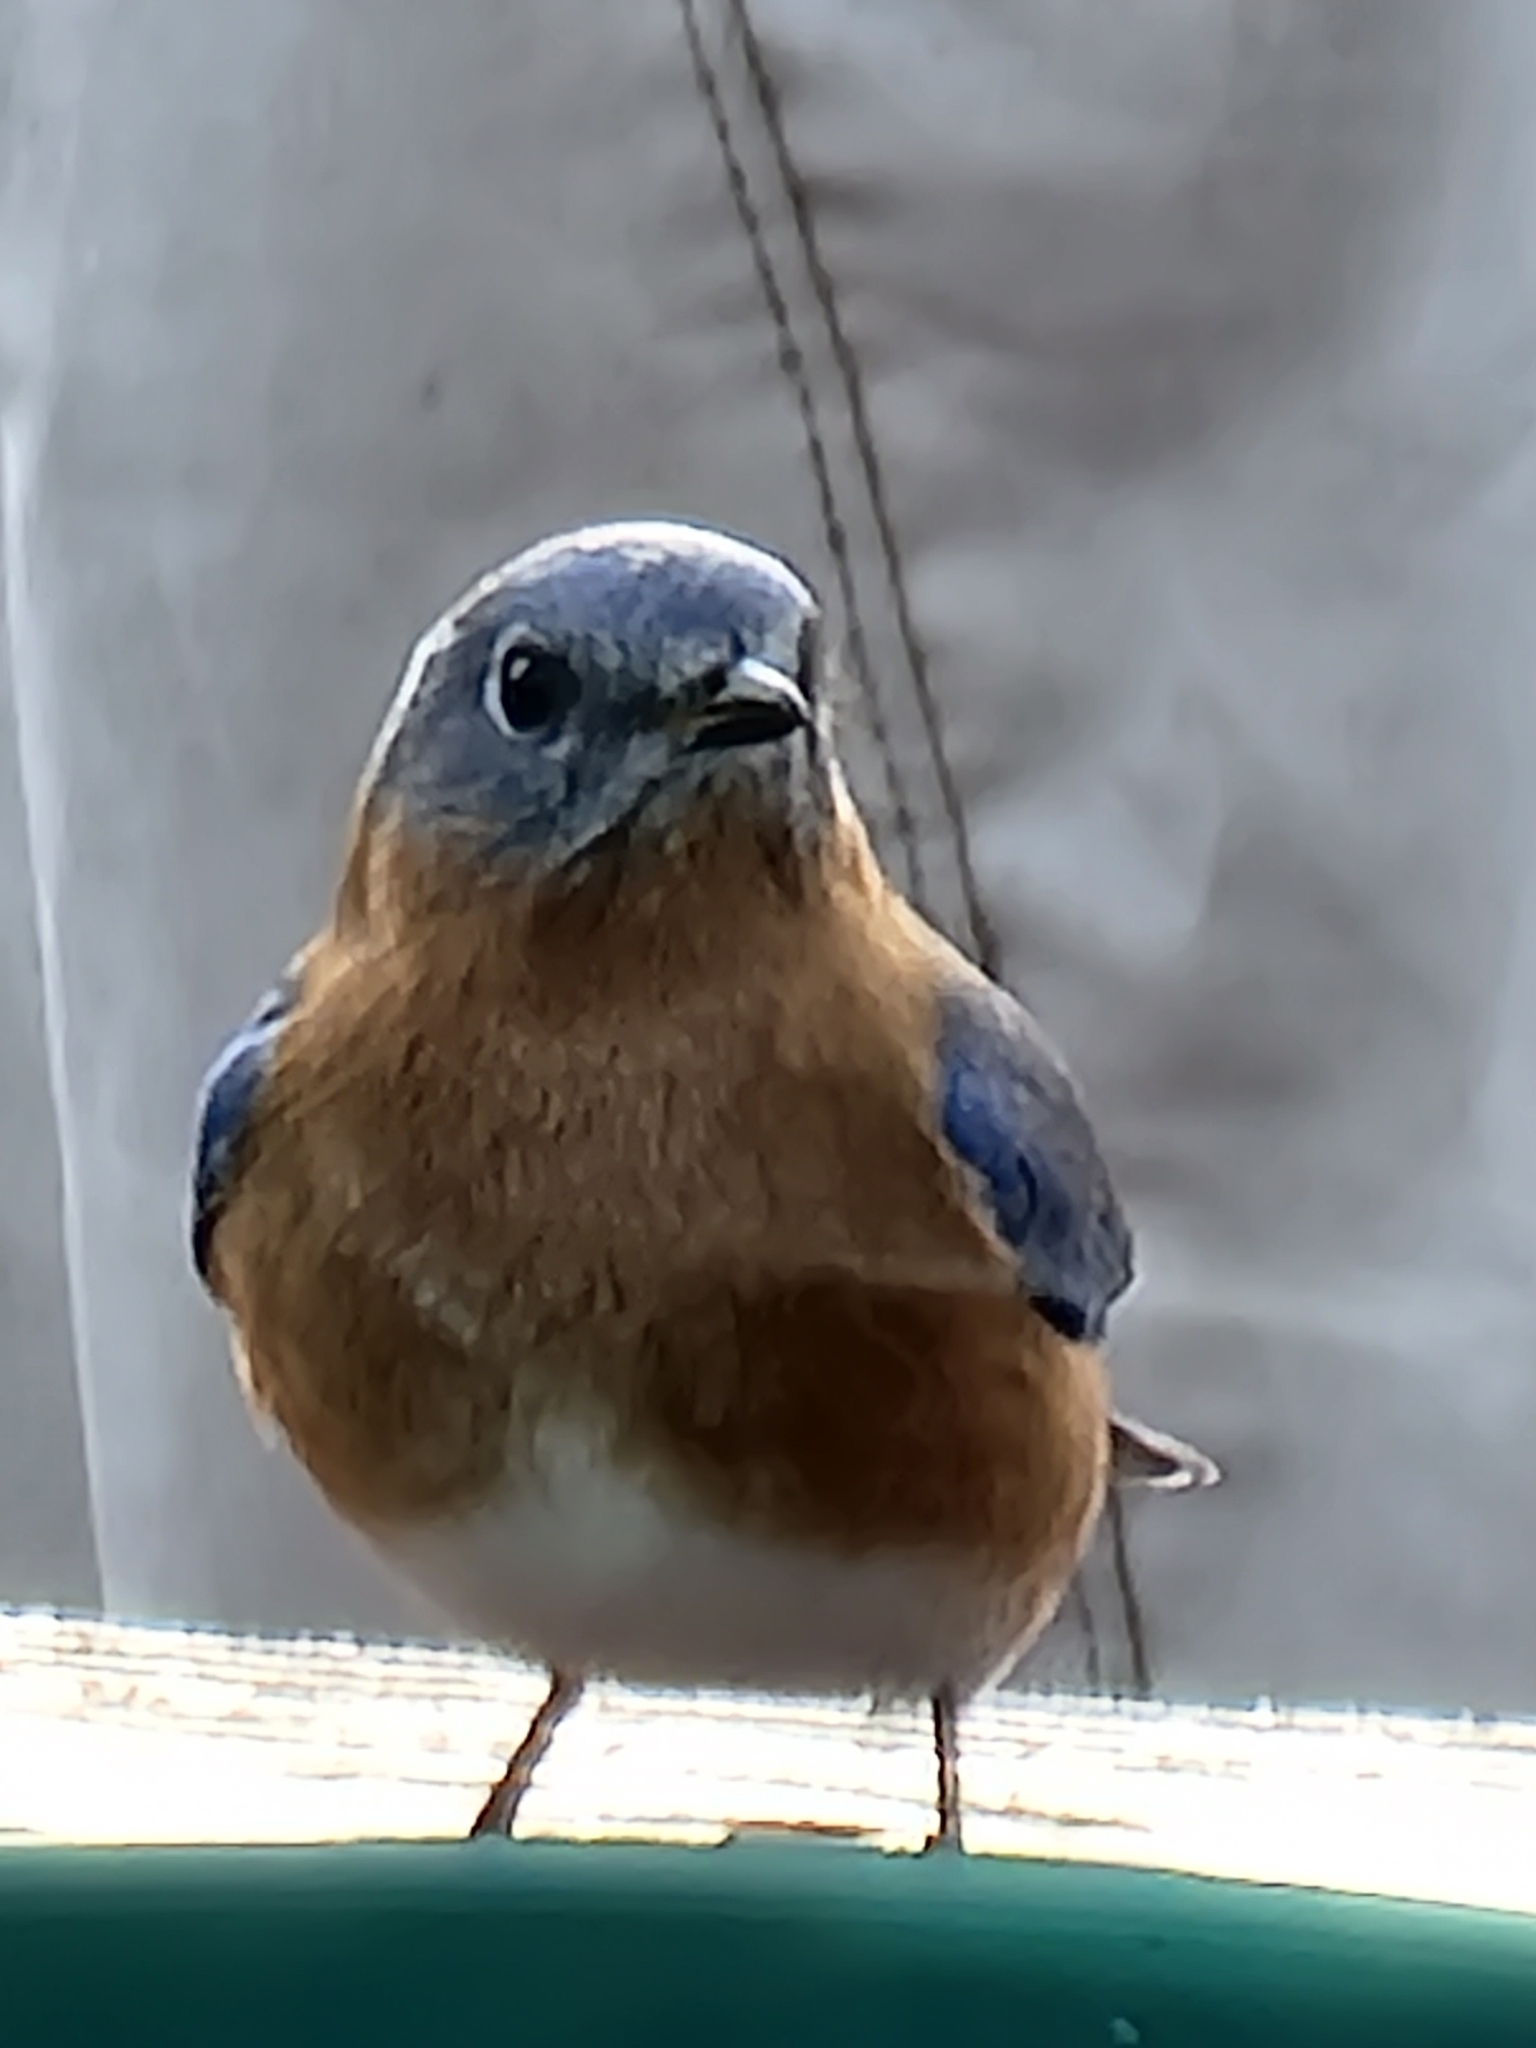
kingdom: Animalia
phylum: Chordata
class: Aves
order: Passeriformes
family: Turdidae
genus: Sialia
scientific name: Sialia sialis
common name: Eastern bluebird
